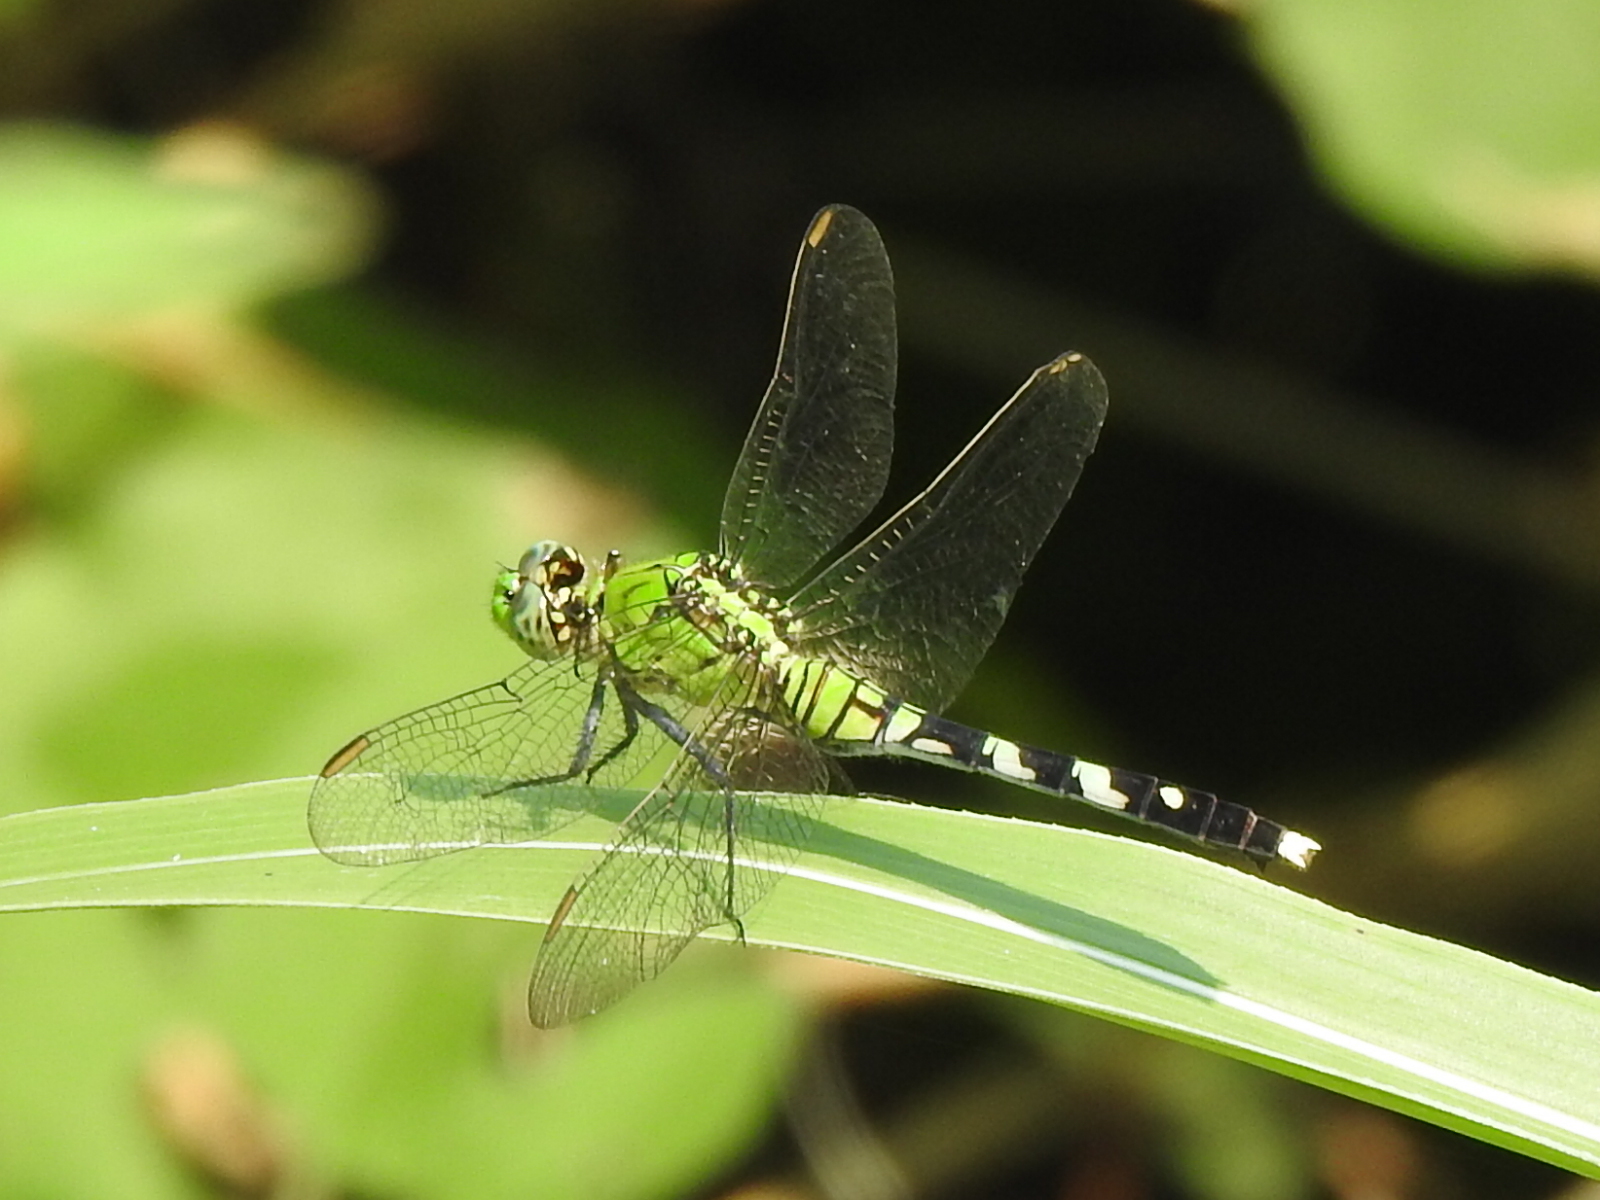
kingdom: Animalia
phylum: Arthropoda
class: Insecta
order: Odonata
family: Libellulidae
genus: Erythemis
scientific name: Erythemis simplicicollis
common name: Eastern pondhawk
